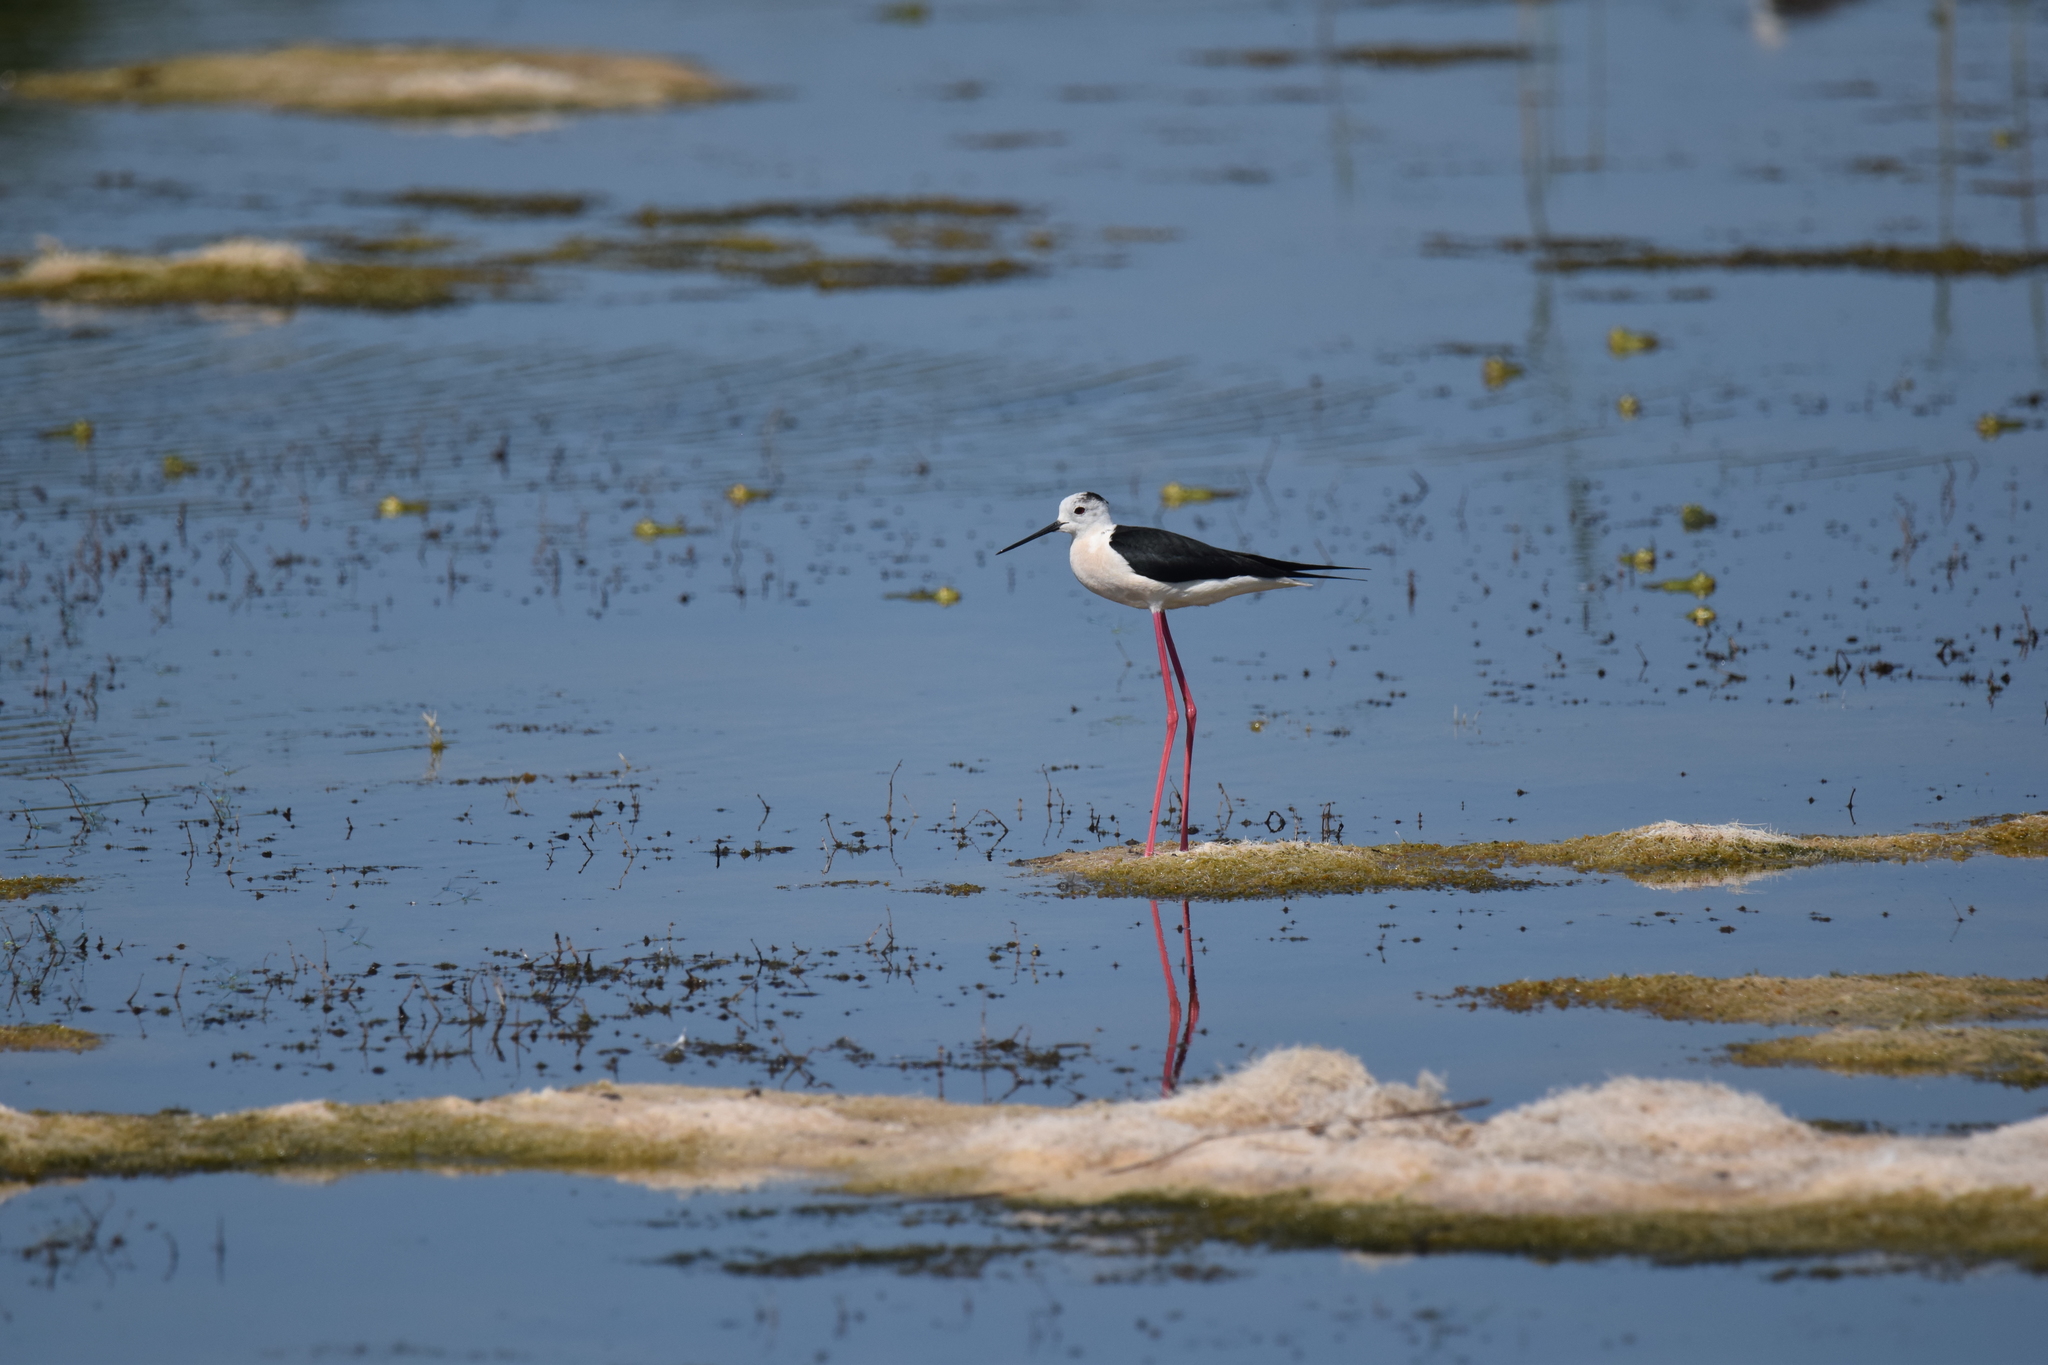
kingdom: Animalia
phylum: Chordata
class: Aves
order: Charadriiformes
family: Recurvirostridae
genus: Himantopus
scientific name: Himantopus himantopus
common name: Black-winged stilt
